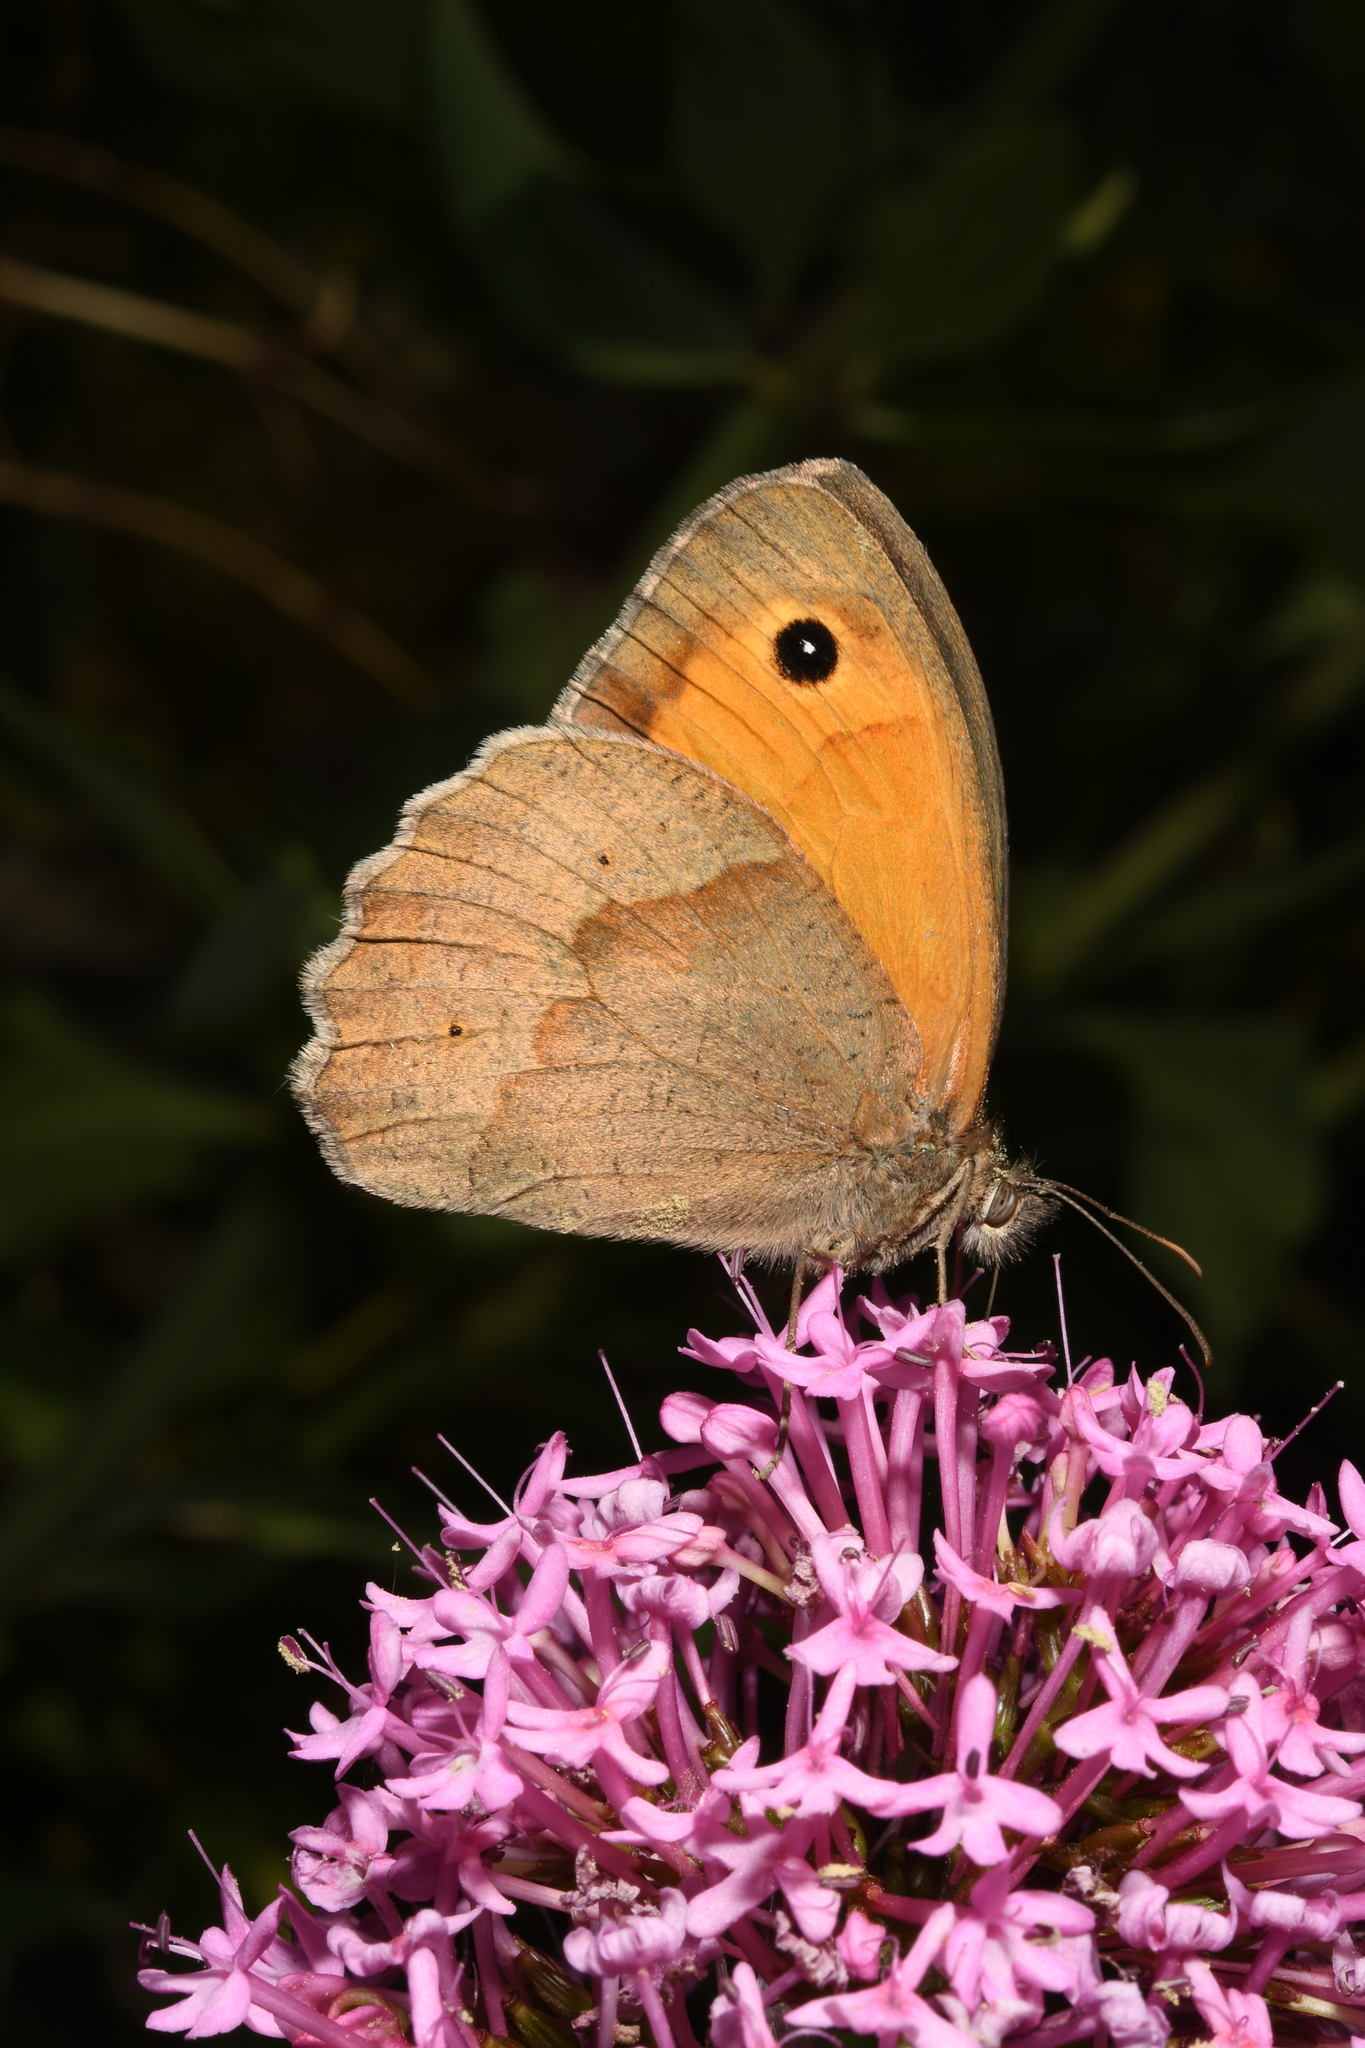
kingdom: Animalia
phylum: Arthropoda
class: Insecta
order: Lepidoptera
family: Nymphalidae
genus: Maniola
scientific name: Maniola jurtina
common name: Meadow brown
